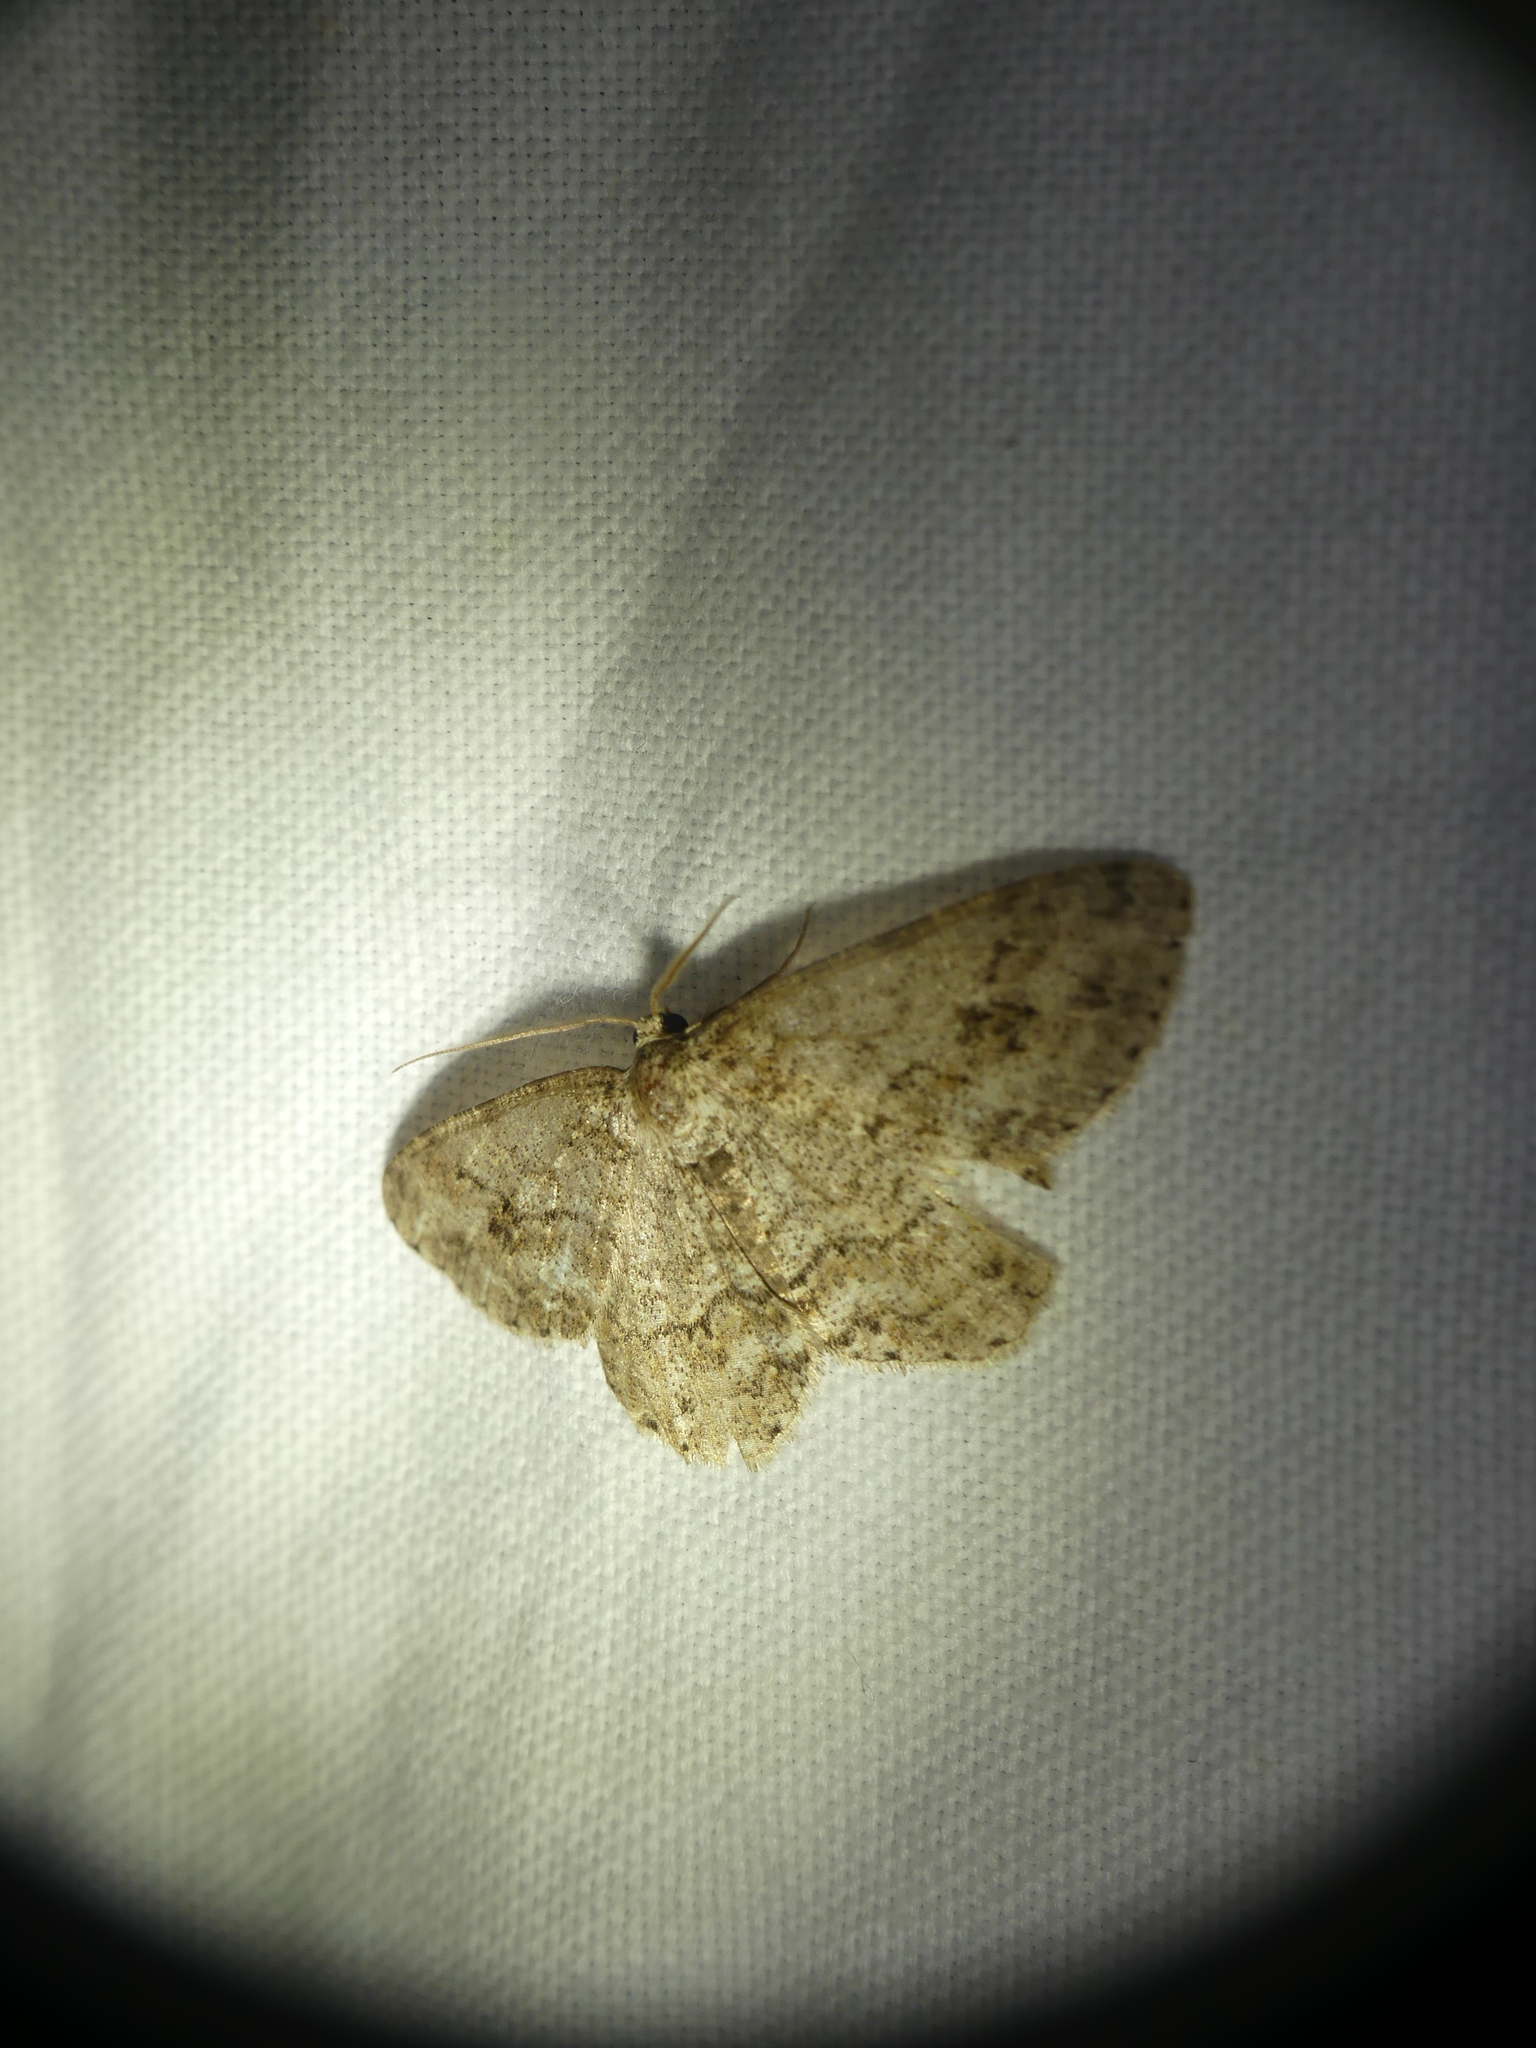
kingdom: Animalia
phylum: Arthropoda
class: Insecta
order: Lepidoptera
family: Geometridae
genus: Ectropis
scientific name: Ectropis crepuscularia
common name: Engrailed
